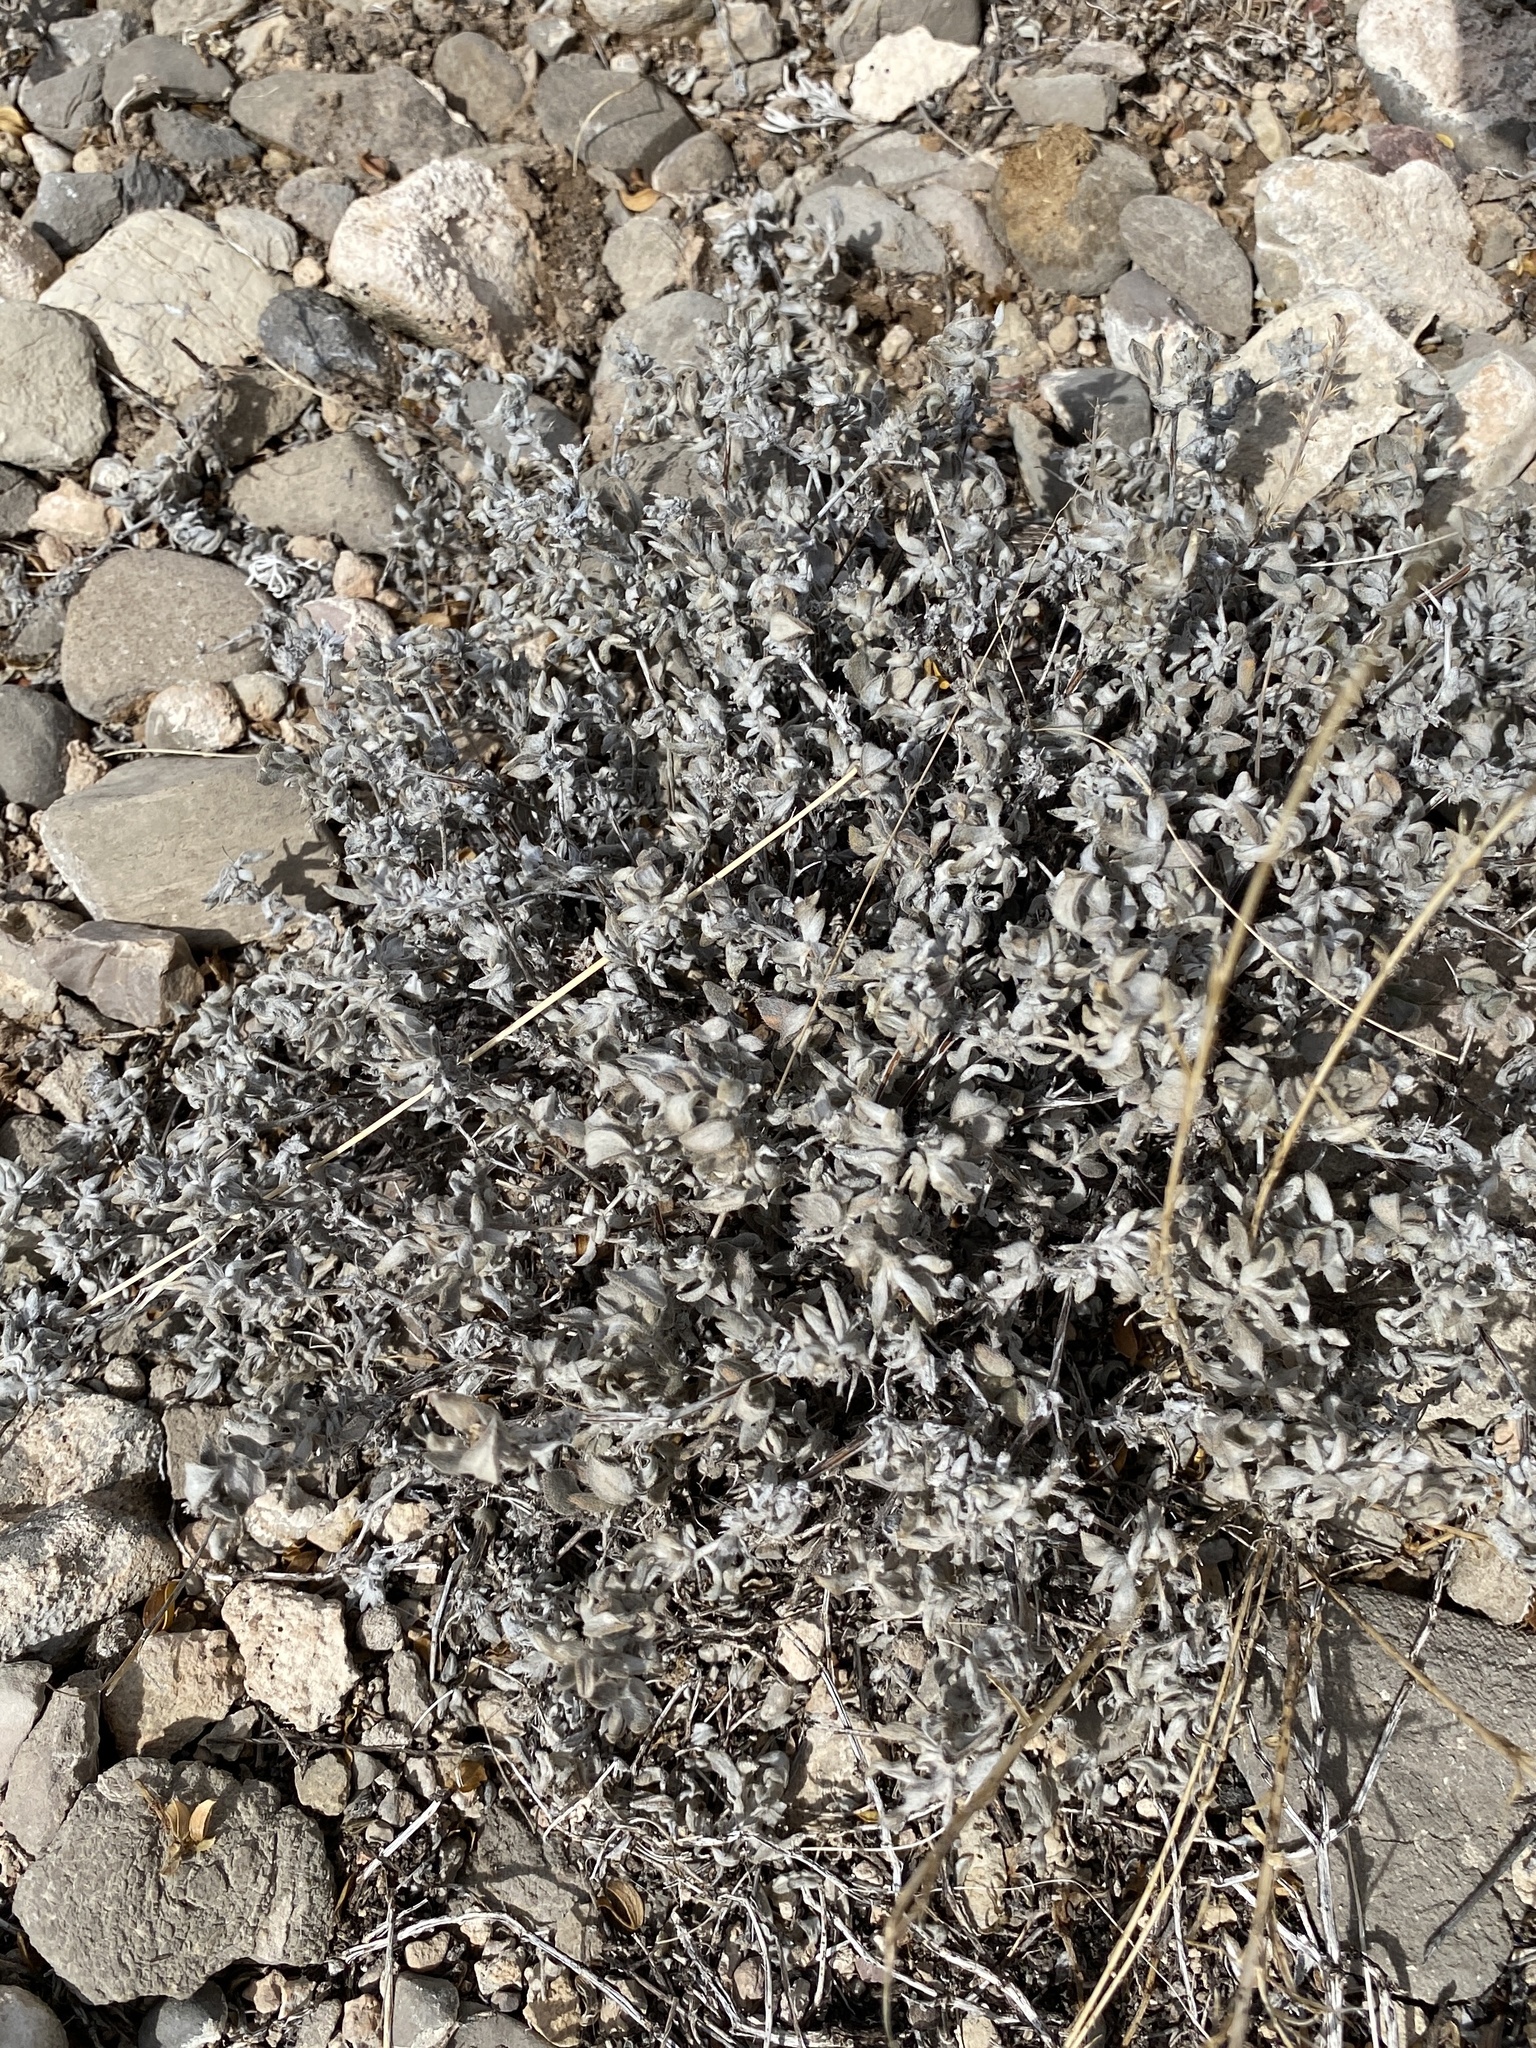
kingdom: Plantae
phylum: Tracheophyta
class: Magnoliopsida
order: Boraginales
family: Ehretiaceae
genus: Tiquilia
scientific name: Tiquilia canescens
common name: Hairy tiquilia
